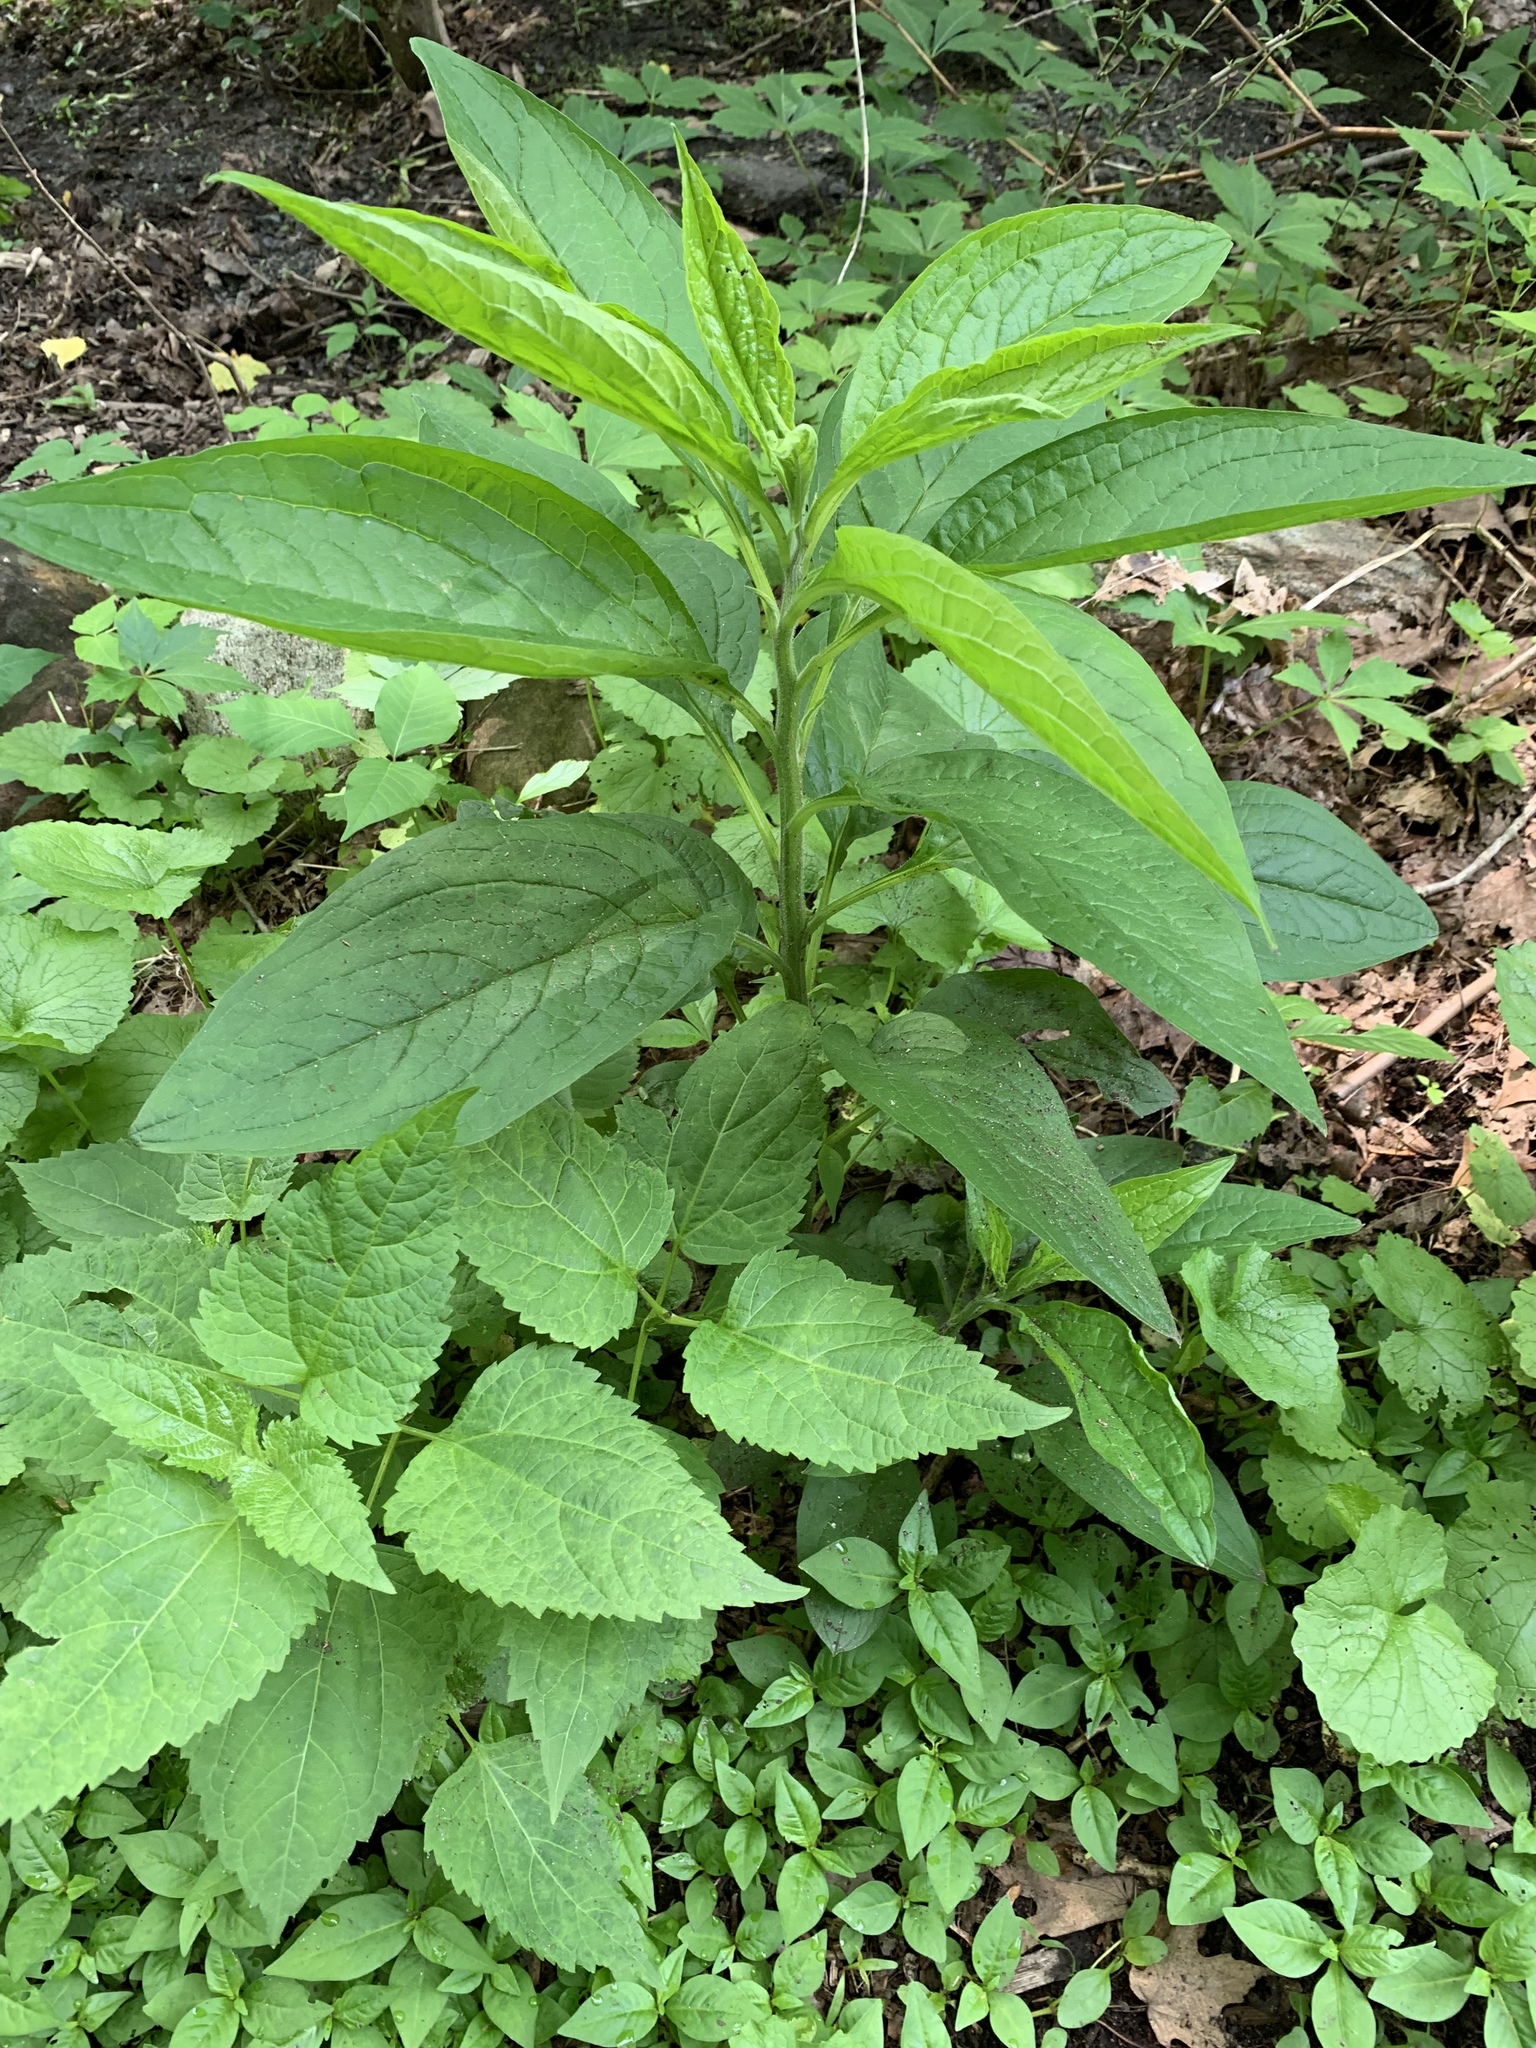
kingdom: Plantae
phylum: Tracheophyta
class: Magnoliopsida
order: Boraginales
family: Boraginaceae
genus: Hackelia
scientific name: Hackelia virginiana
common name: Beggar's-lice
